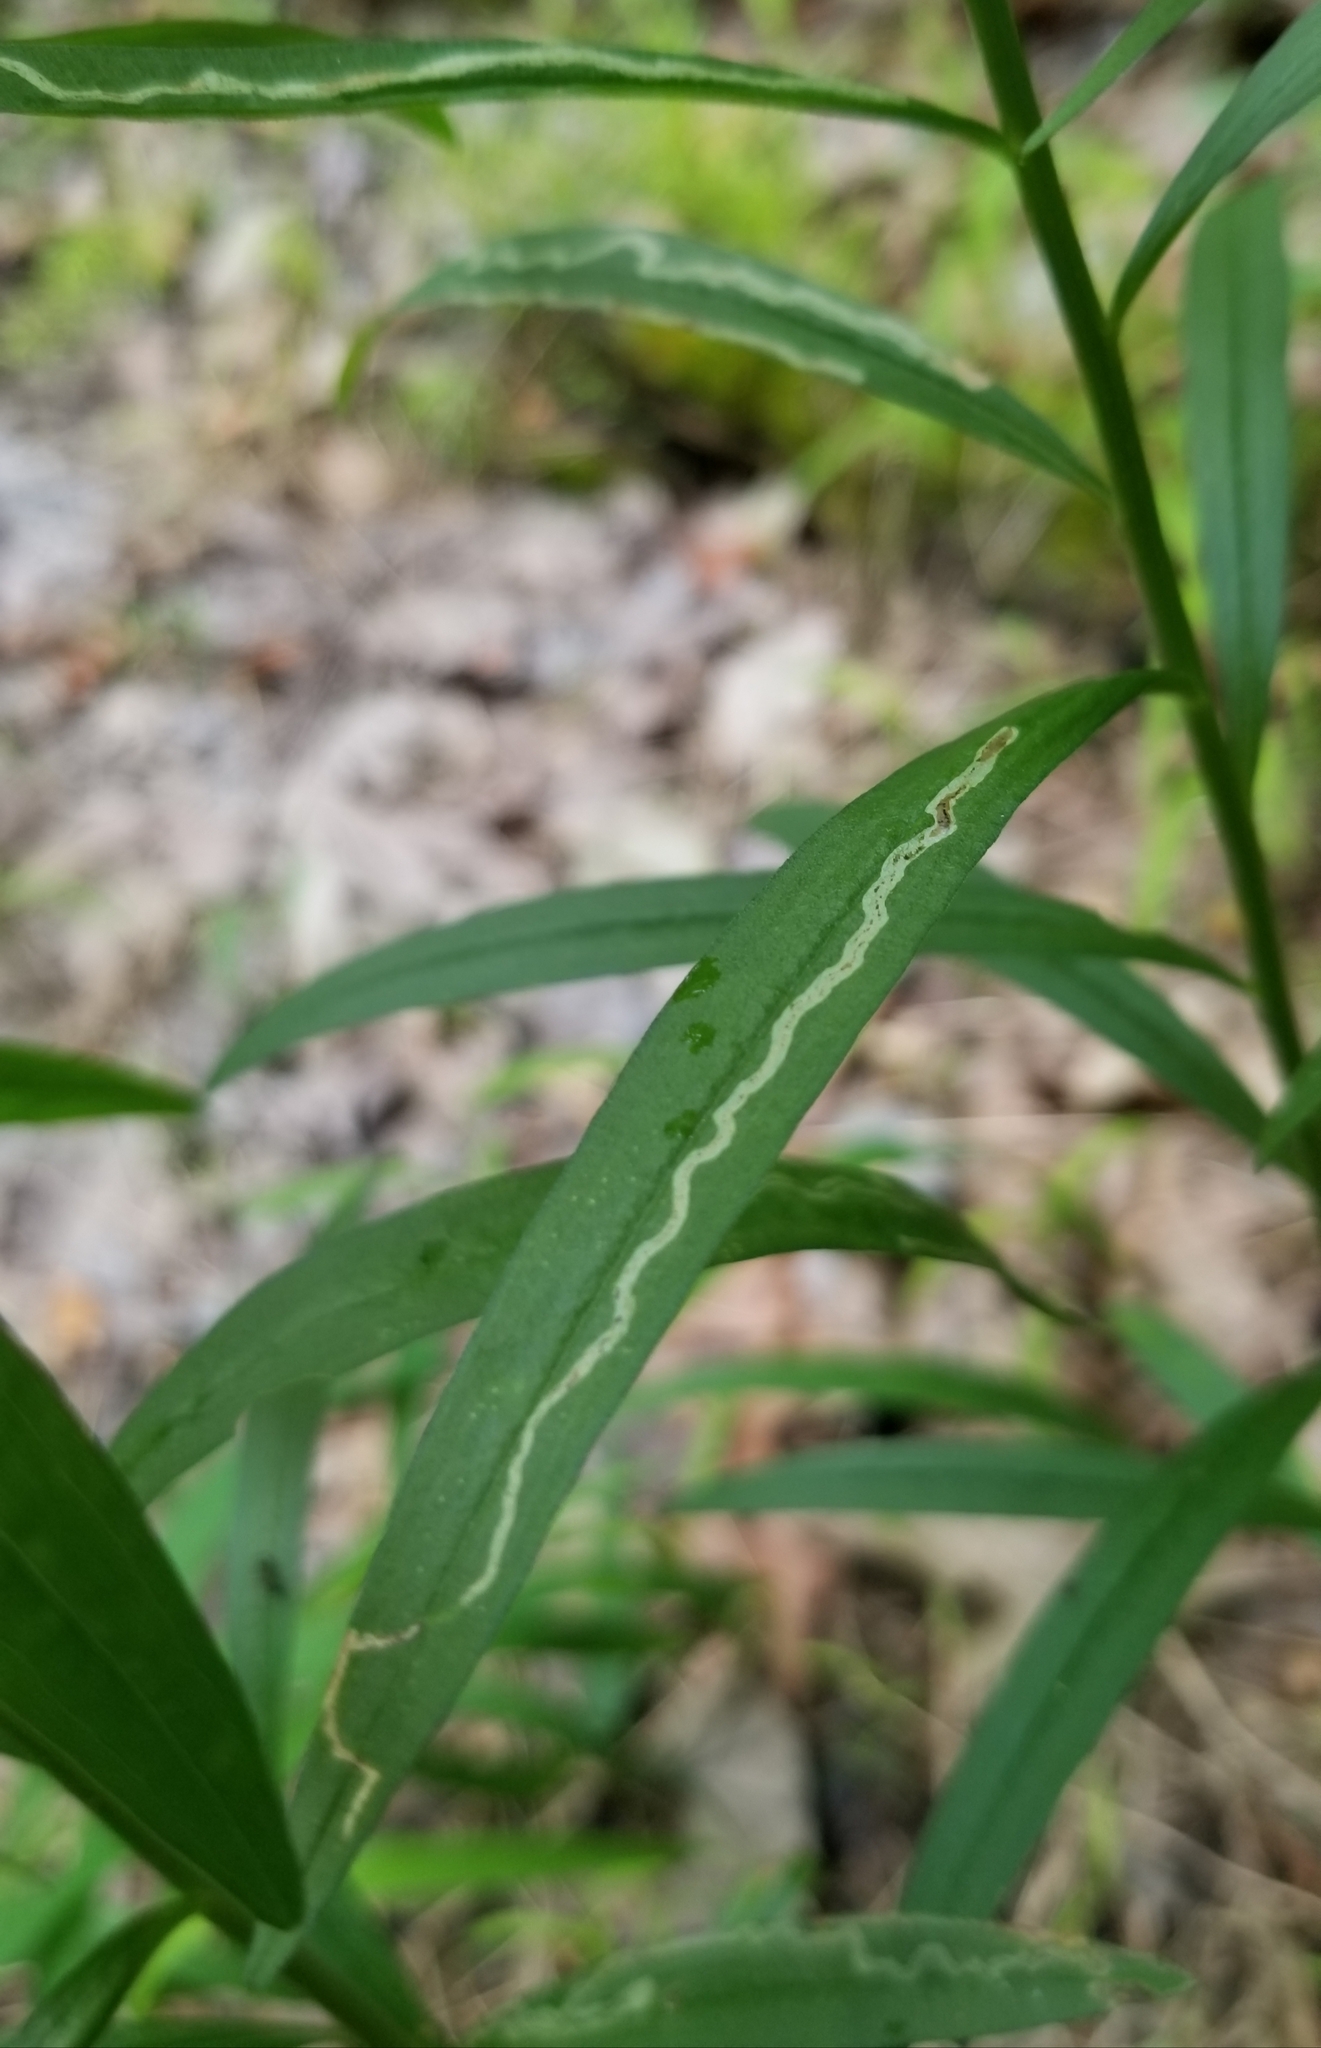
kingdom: Animalia
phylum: Arthropoda
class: Insecta
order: Diptera
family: Agromyzidae
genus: Ophiomyia
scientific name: Ophiomyia maura
